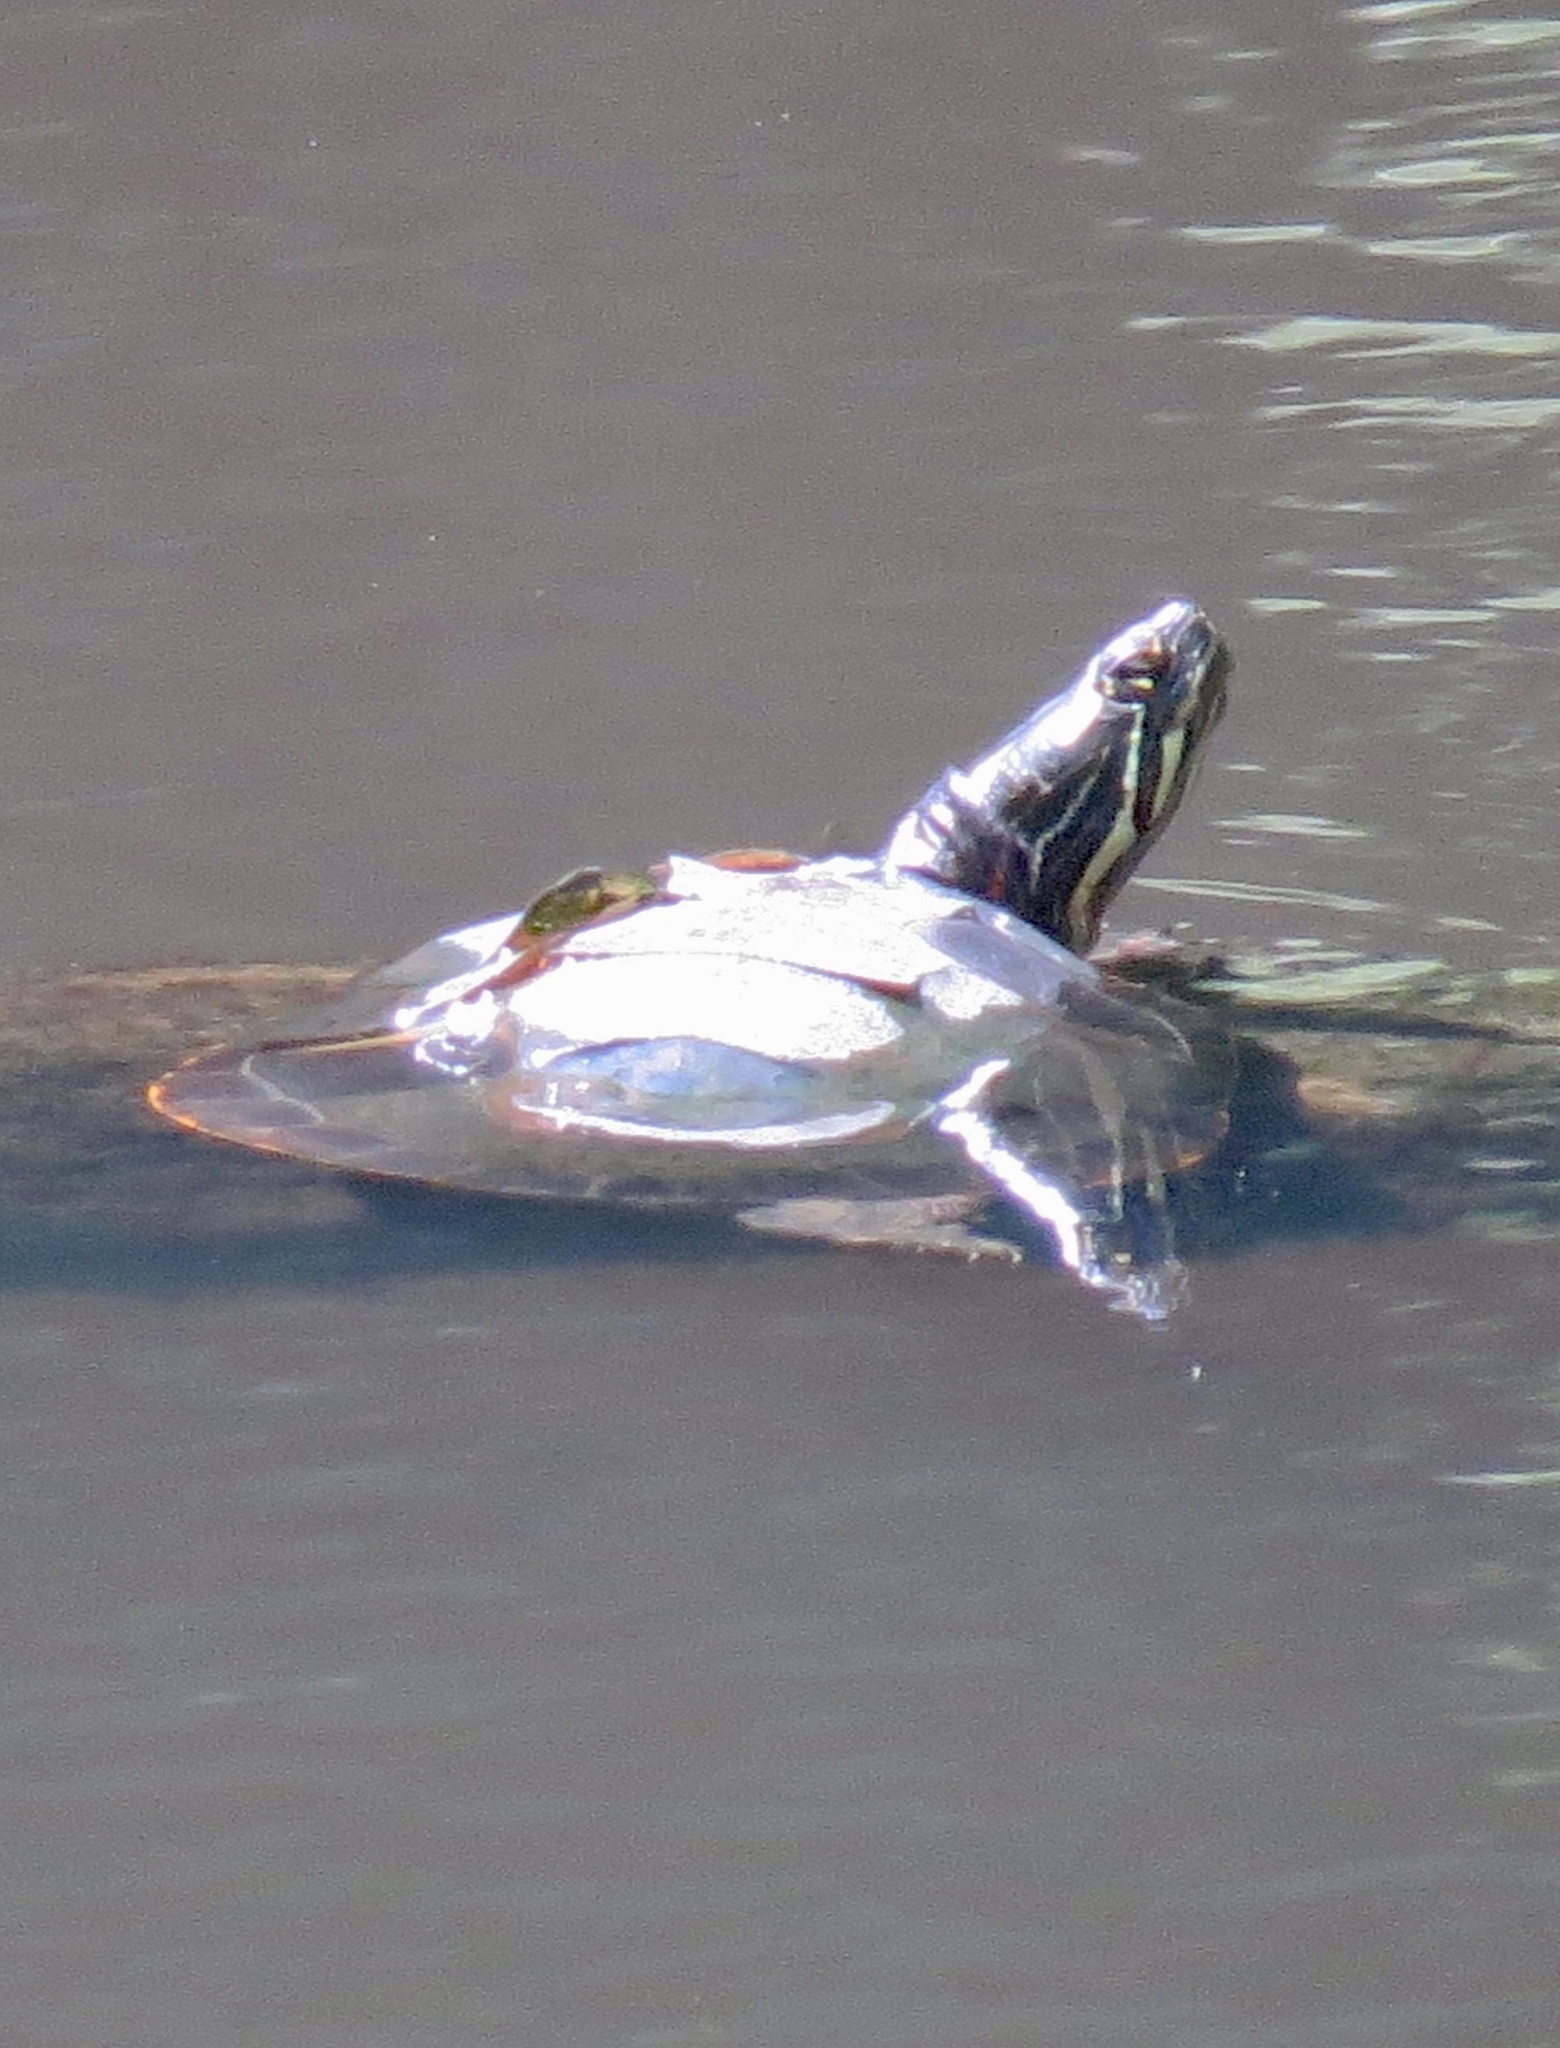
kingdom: Animalia
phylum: Chordata
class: Testudines
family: Emydidae
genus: Chrysemys
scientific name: Chrysemys picta
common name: Painted turtle
